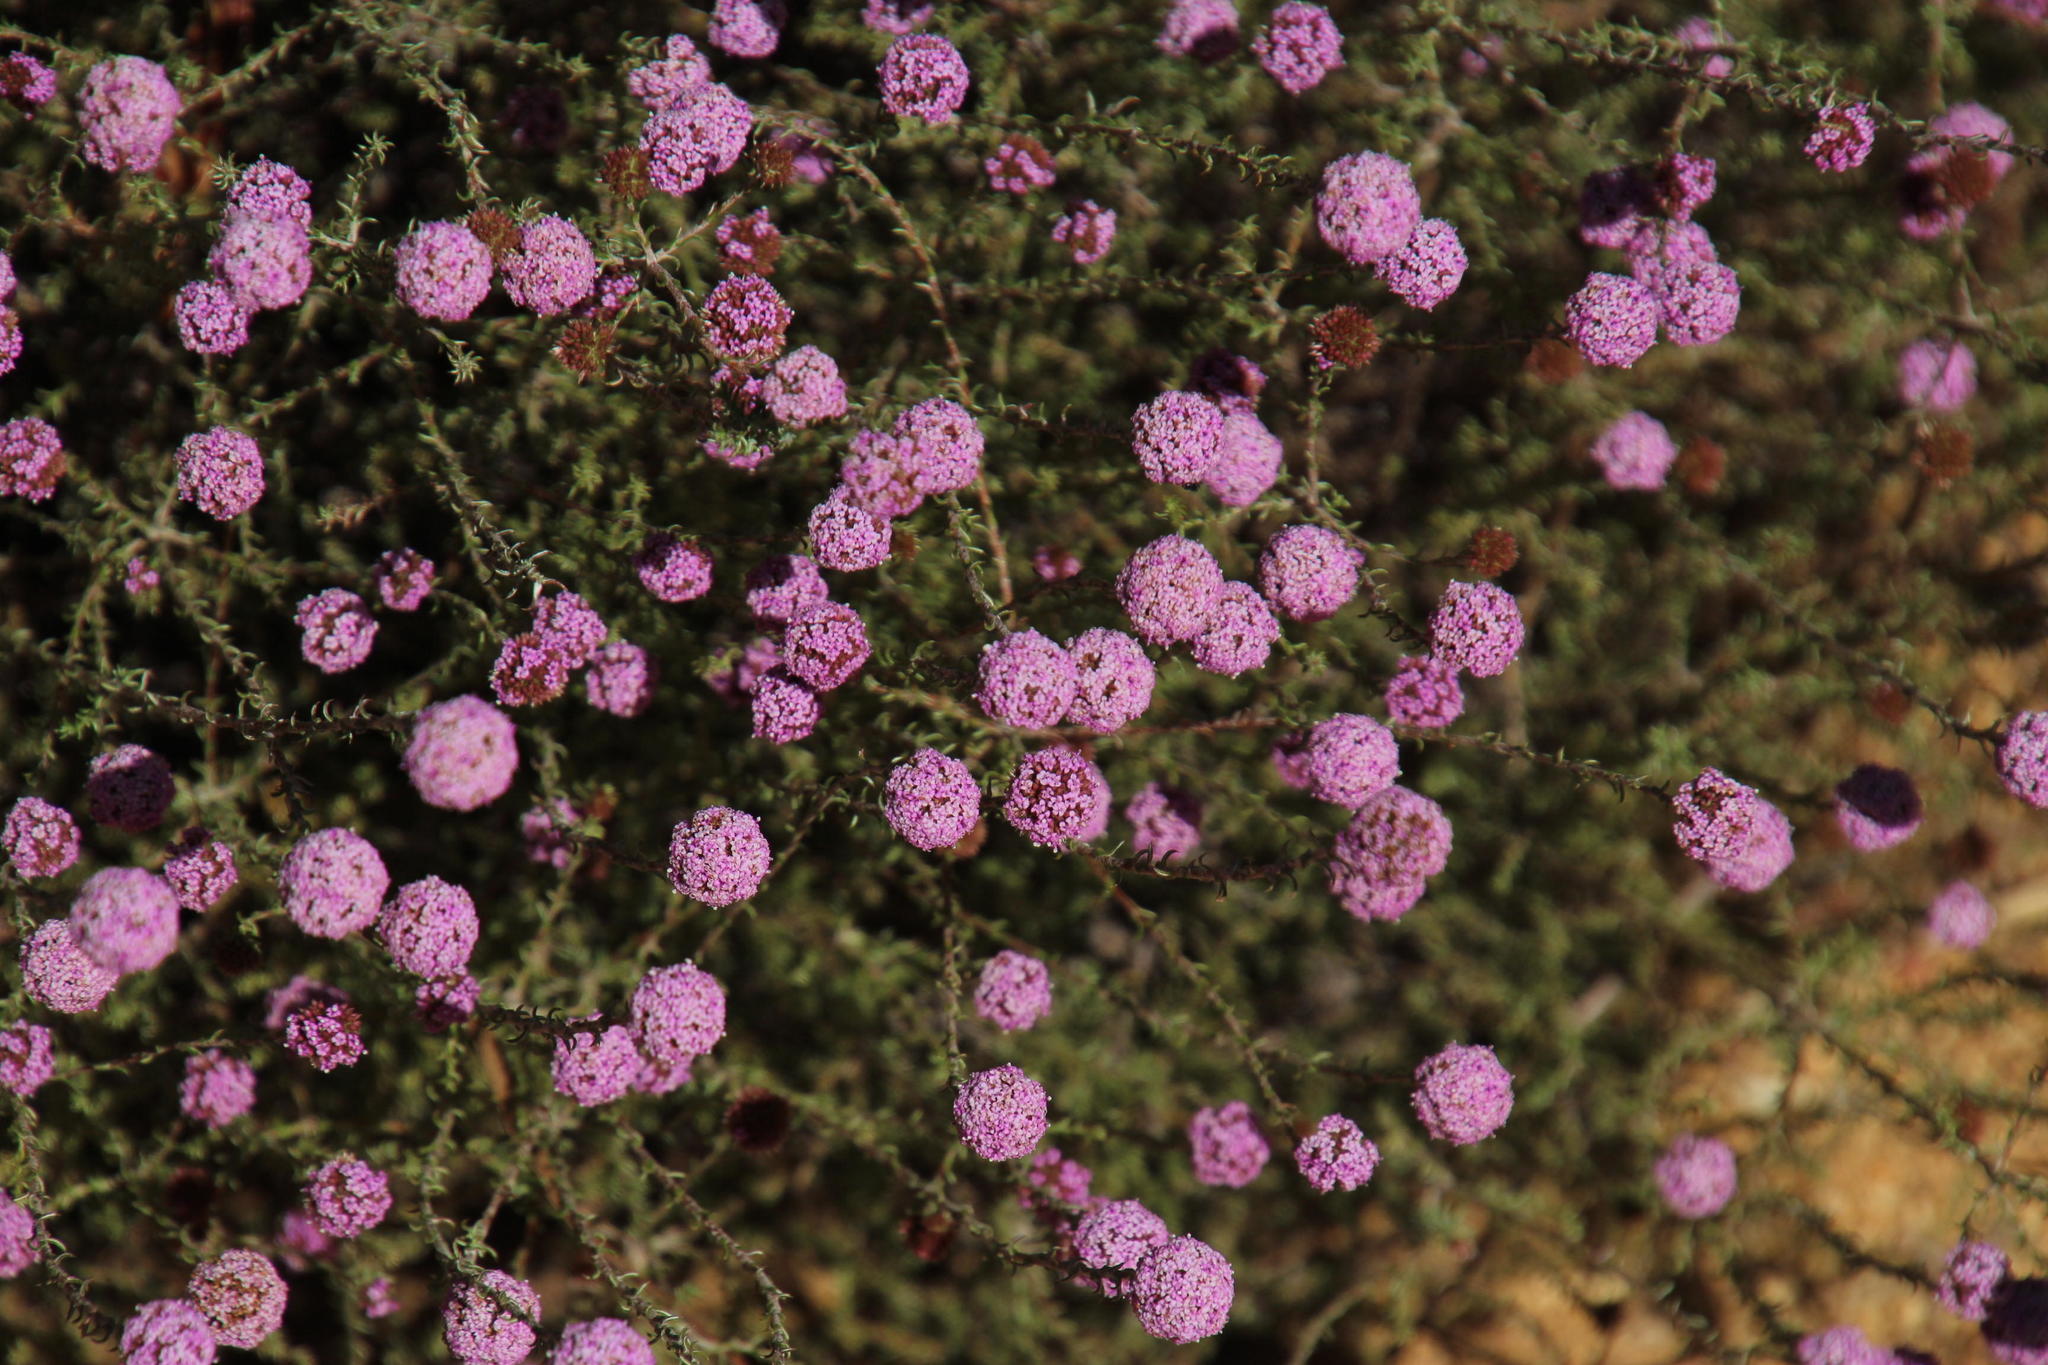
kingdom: Plantae
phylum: Tracheophyta
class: Magnoliopsida
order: Asterales
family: Asteraceae
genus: Stoebe
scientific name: Stoebe capitata
